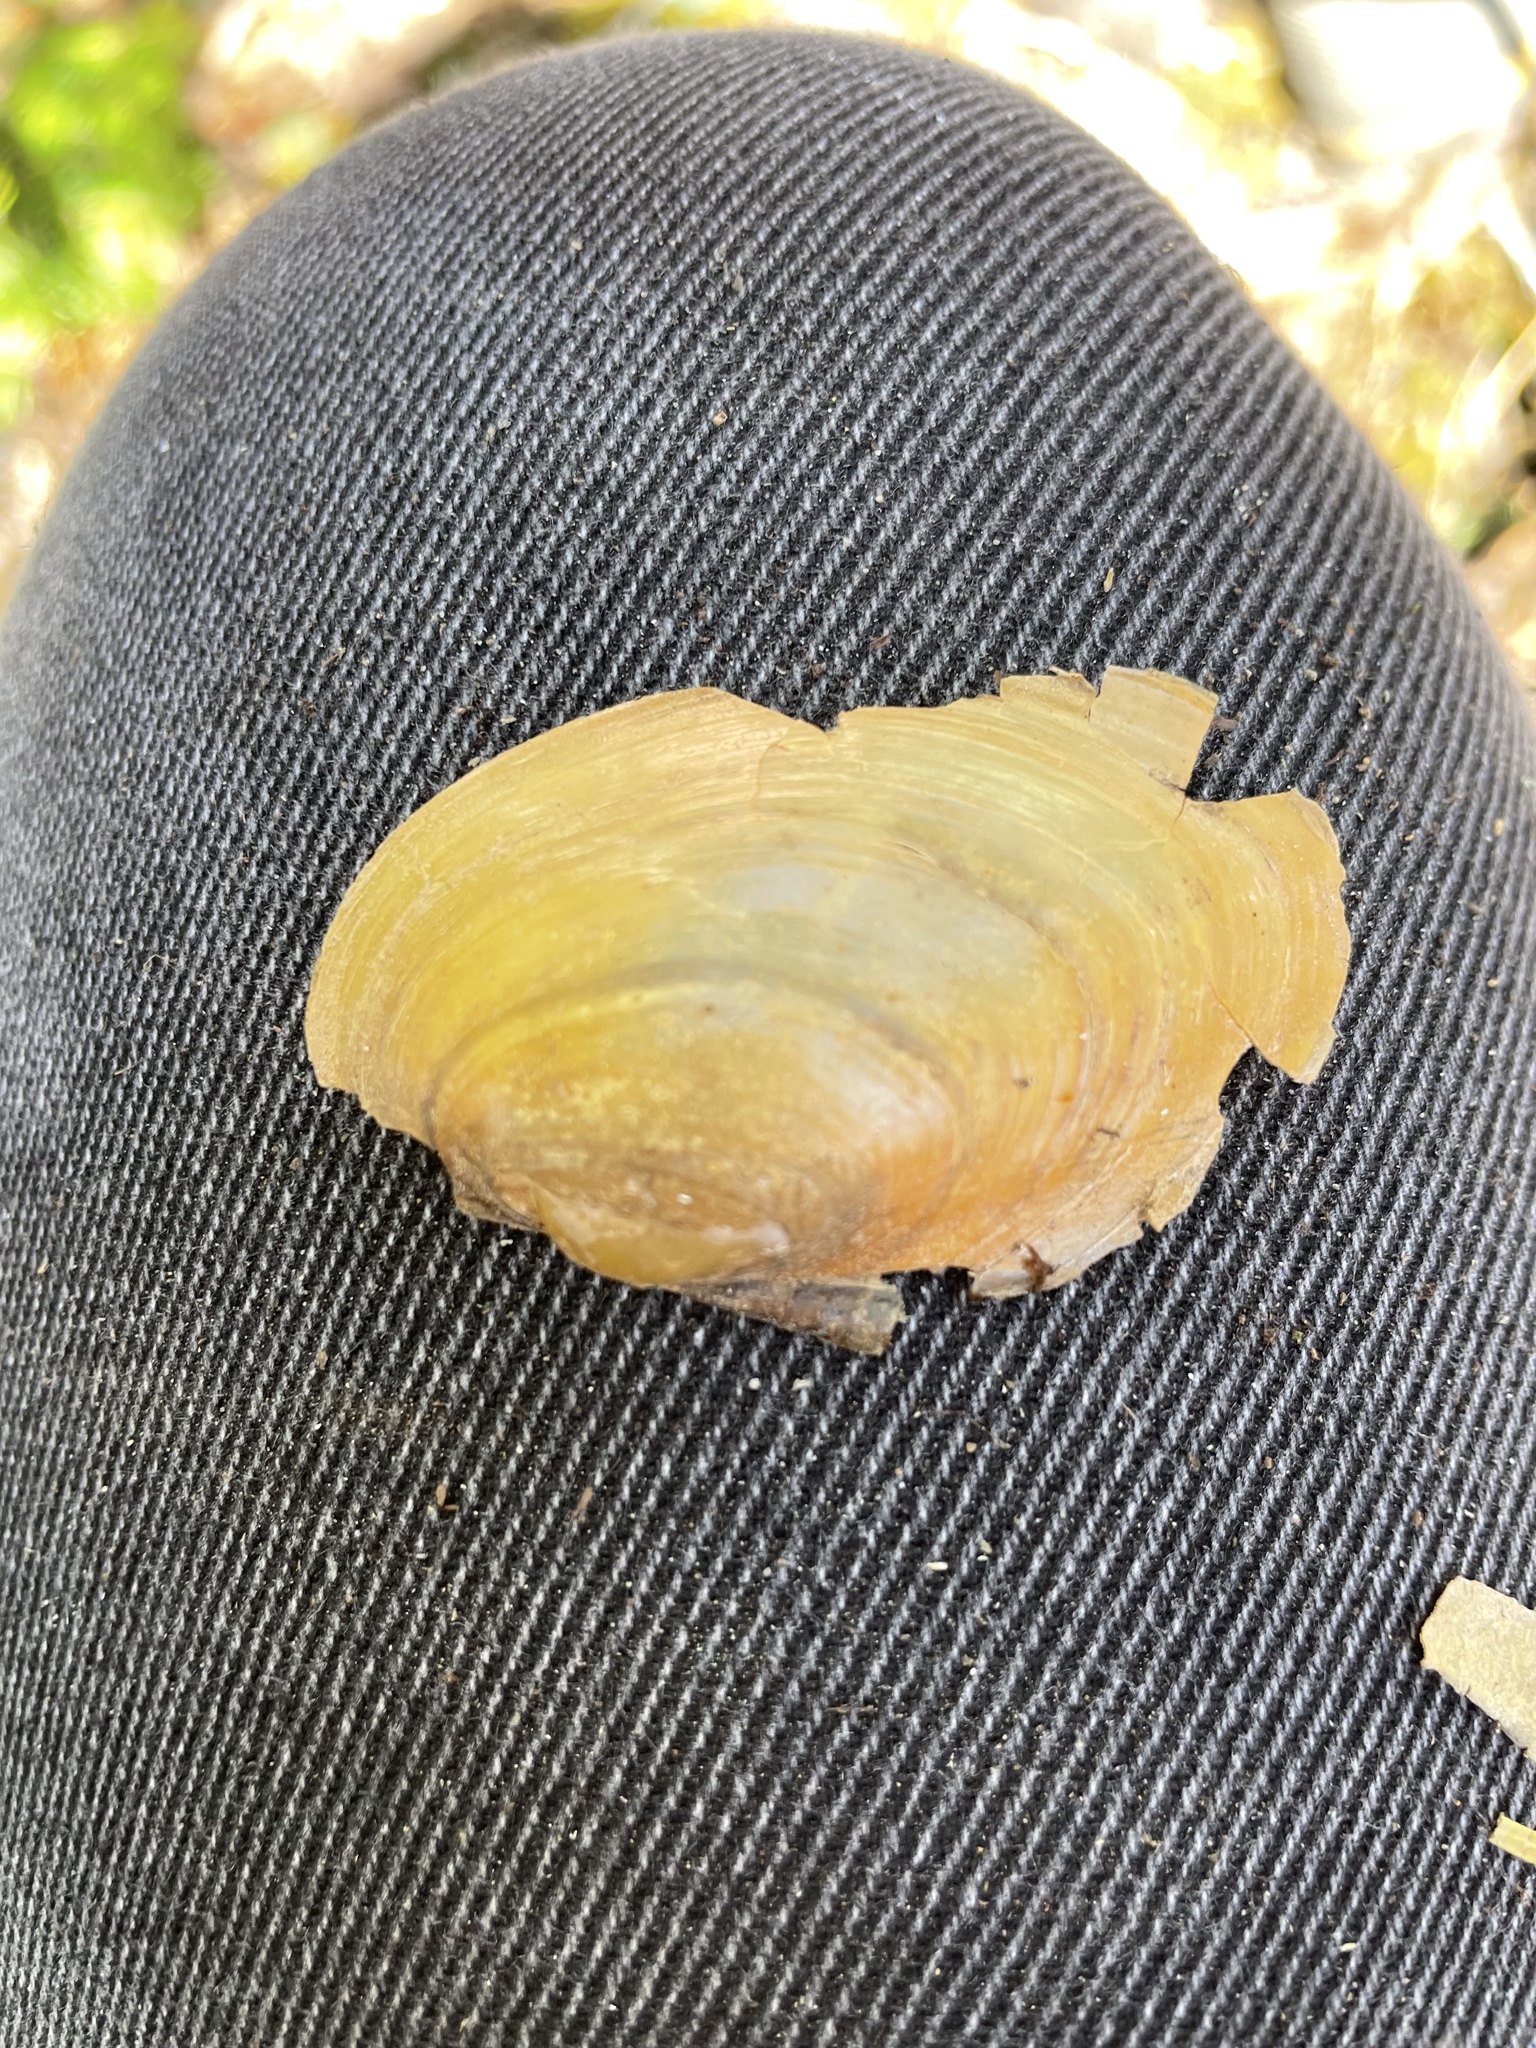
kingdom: Animalia
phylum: Mollusca
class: Bivalvia
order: Unionida
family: Unionidae
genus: Lampsilis
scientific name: Lampsilis cariosa
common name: Yellow lampmussel
